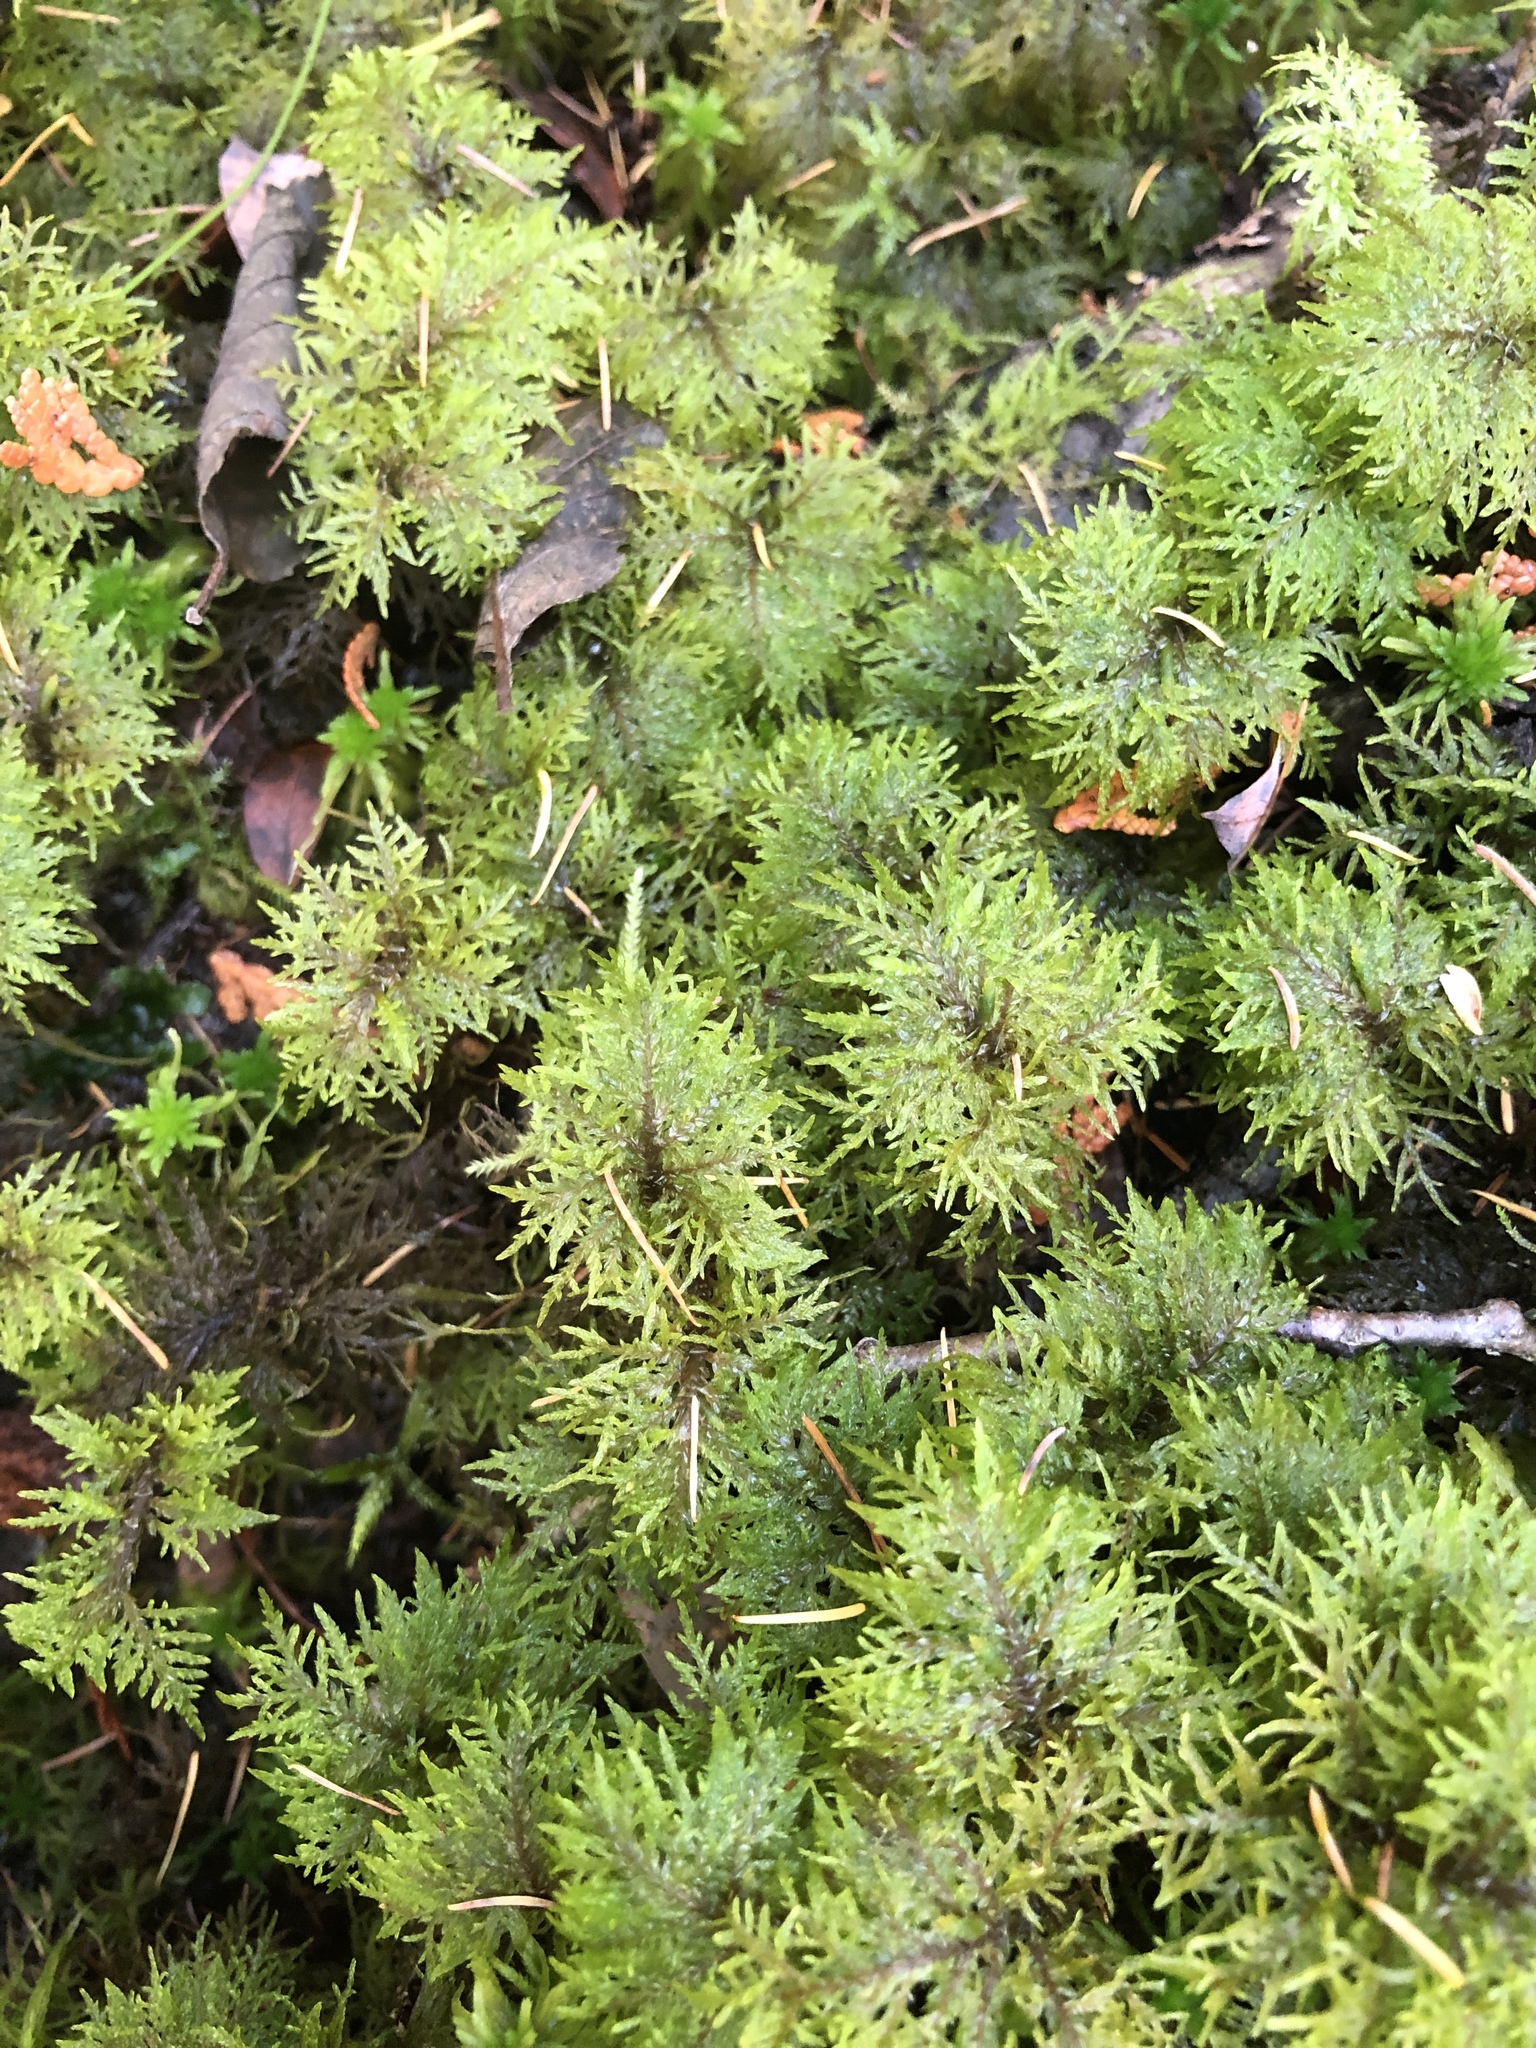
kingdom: Plantae
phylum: Bryophyta
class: Bryopsida
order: Hypnales
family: Hylocomiaceae
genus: Hylocomium
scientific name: Hylocomium splendens
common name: Stairstep moss
